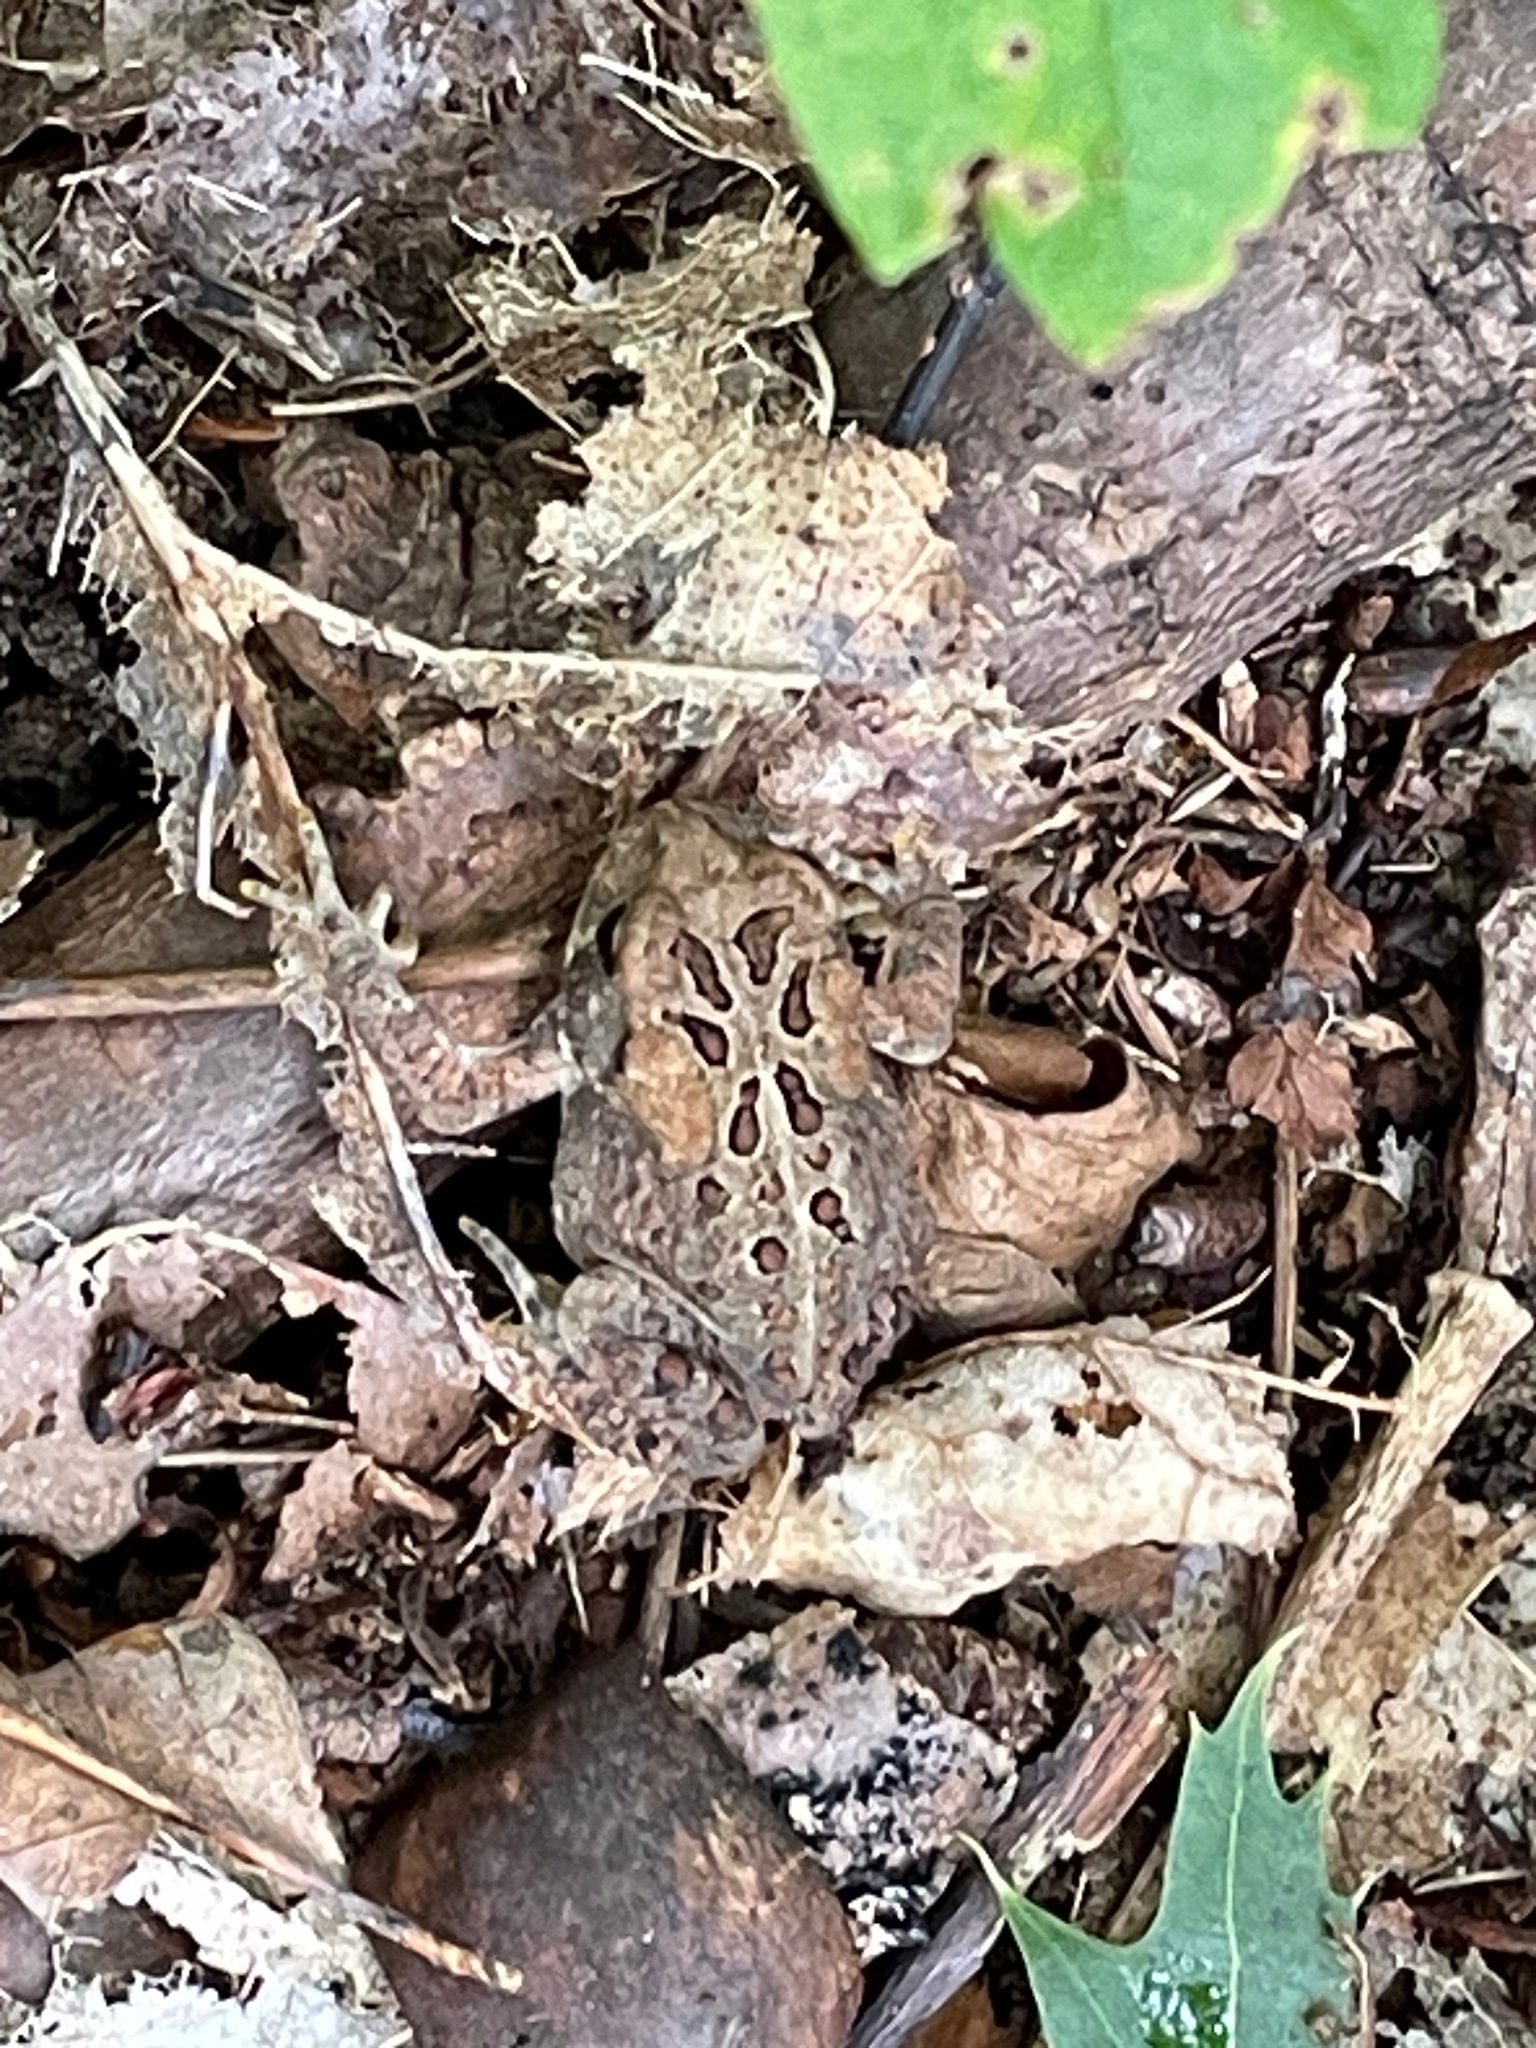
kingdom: Animalia
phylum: Chordata
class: Amphibia
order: Anura
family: Bufonidae
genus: Anaxyrus
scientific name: Anaxyrus americanus
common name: American toad
